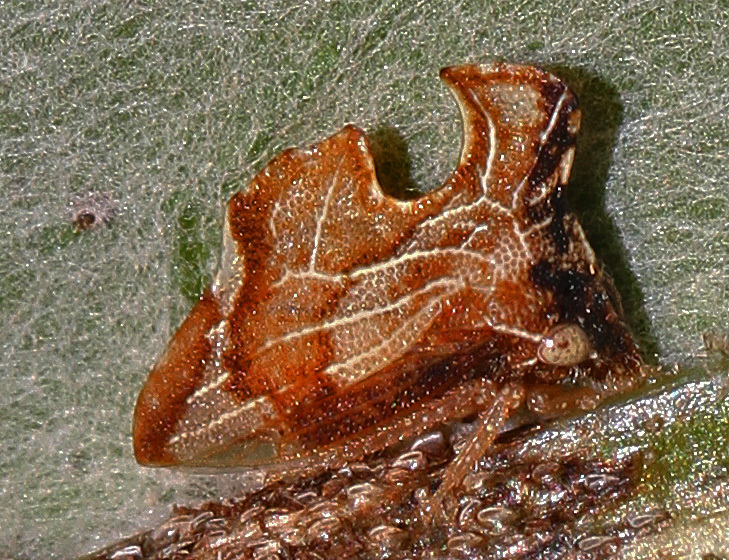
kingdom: Animalia
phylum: Arthropoda
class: Insecta
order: Hemiptera
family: Membracidae
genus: Entylia
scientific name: Entylia carinata
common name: Keeled treehopper
